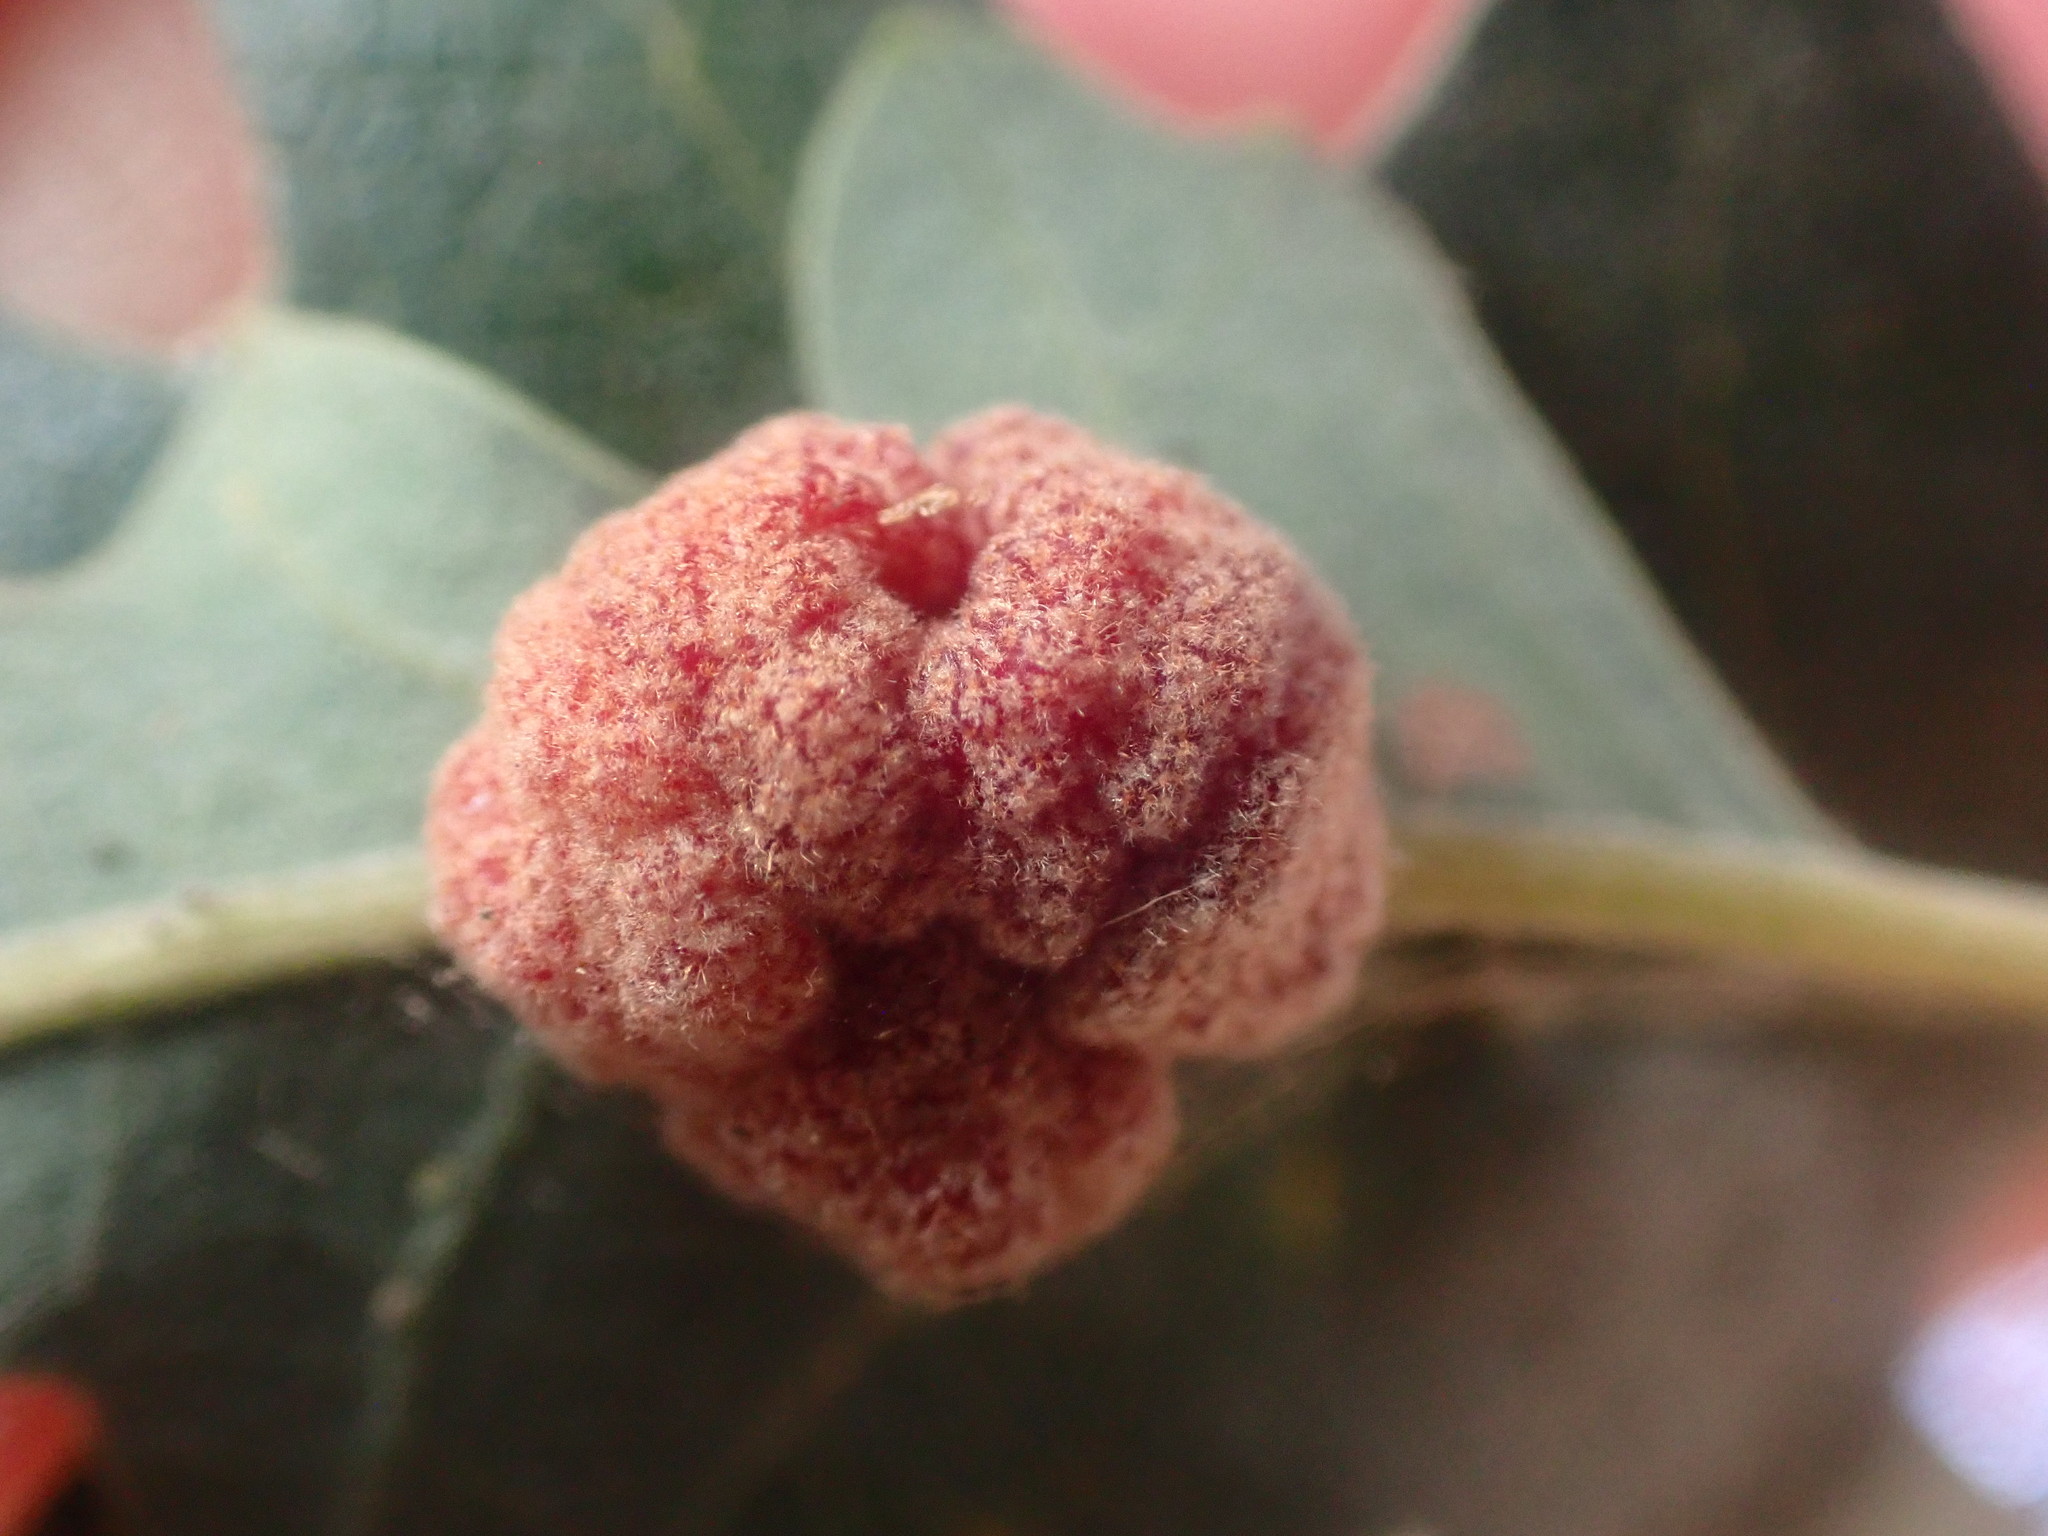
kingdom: Animalia
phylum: Arthropoda
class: Insecta
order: Hymenoptera
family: Cynipidae
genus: Andricus
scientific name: Andricus
